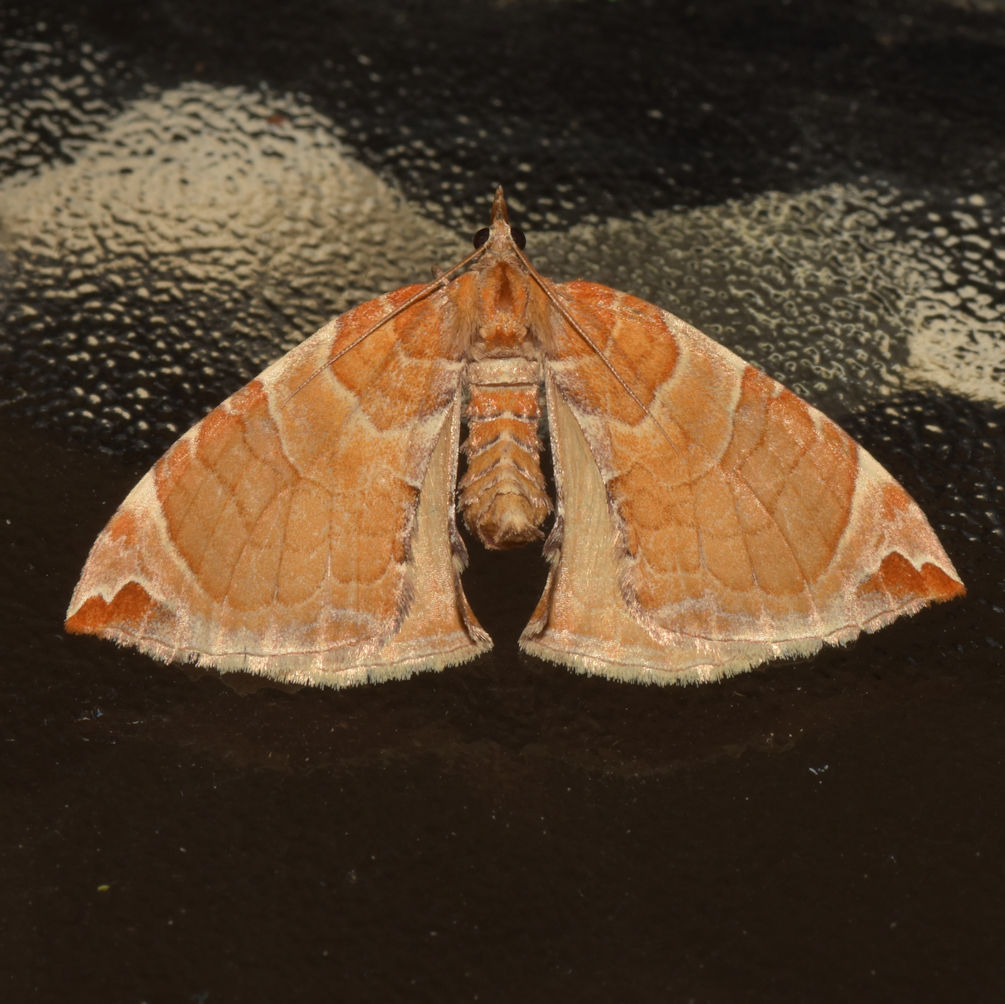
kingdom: Animalia
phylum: Arthropoda
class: Insecta
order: Lepidoptera
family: Geometridae
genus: Eulithis
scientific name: Eulithis molliculata
